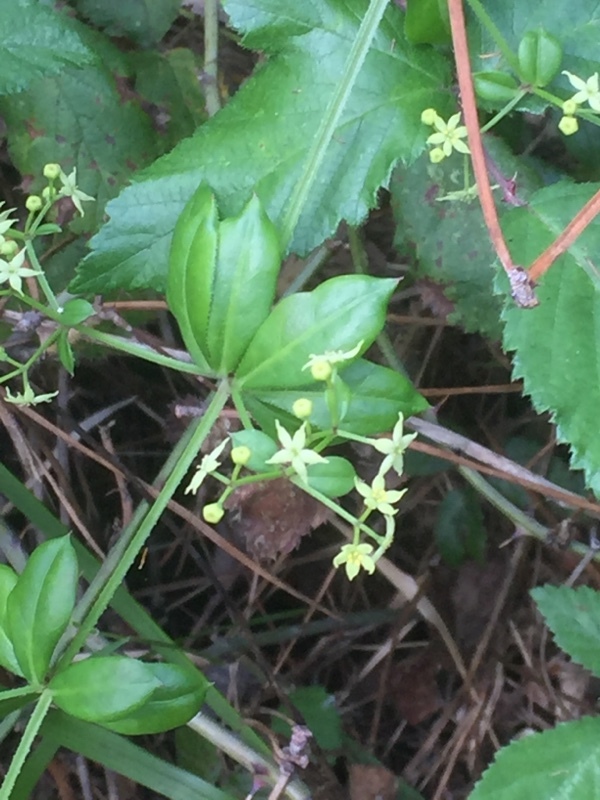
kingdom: Plantae
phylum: Tracheophyta
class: Magnoliopsida
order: Gentianales
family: Rubiaceae
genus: Rubia
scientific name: Rubia peregrina
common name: Wild madder
